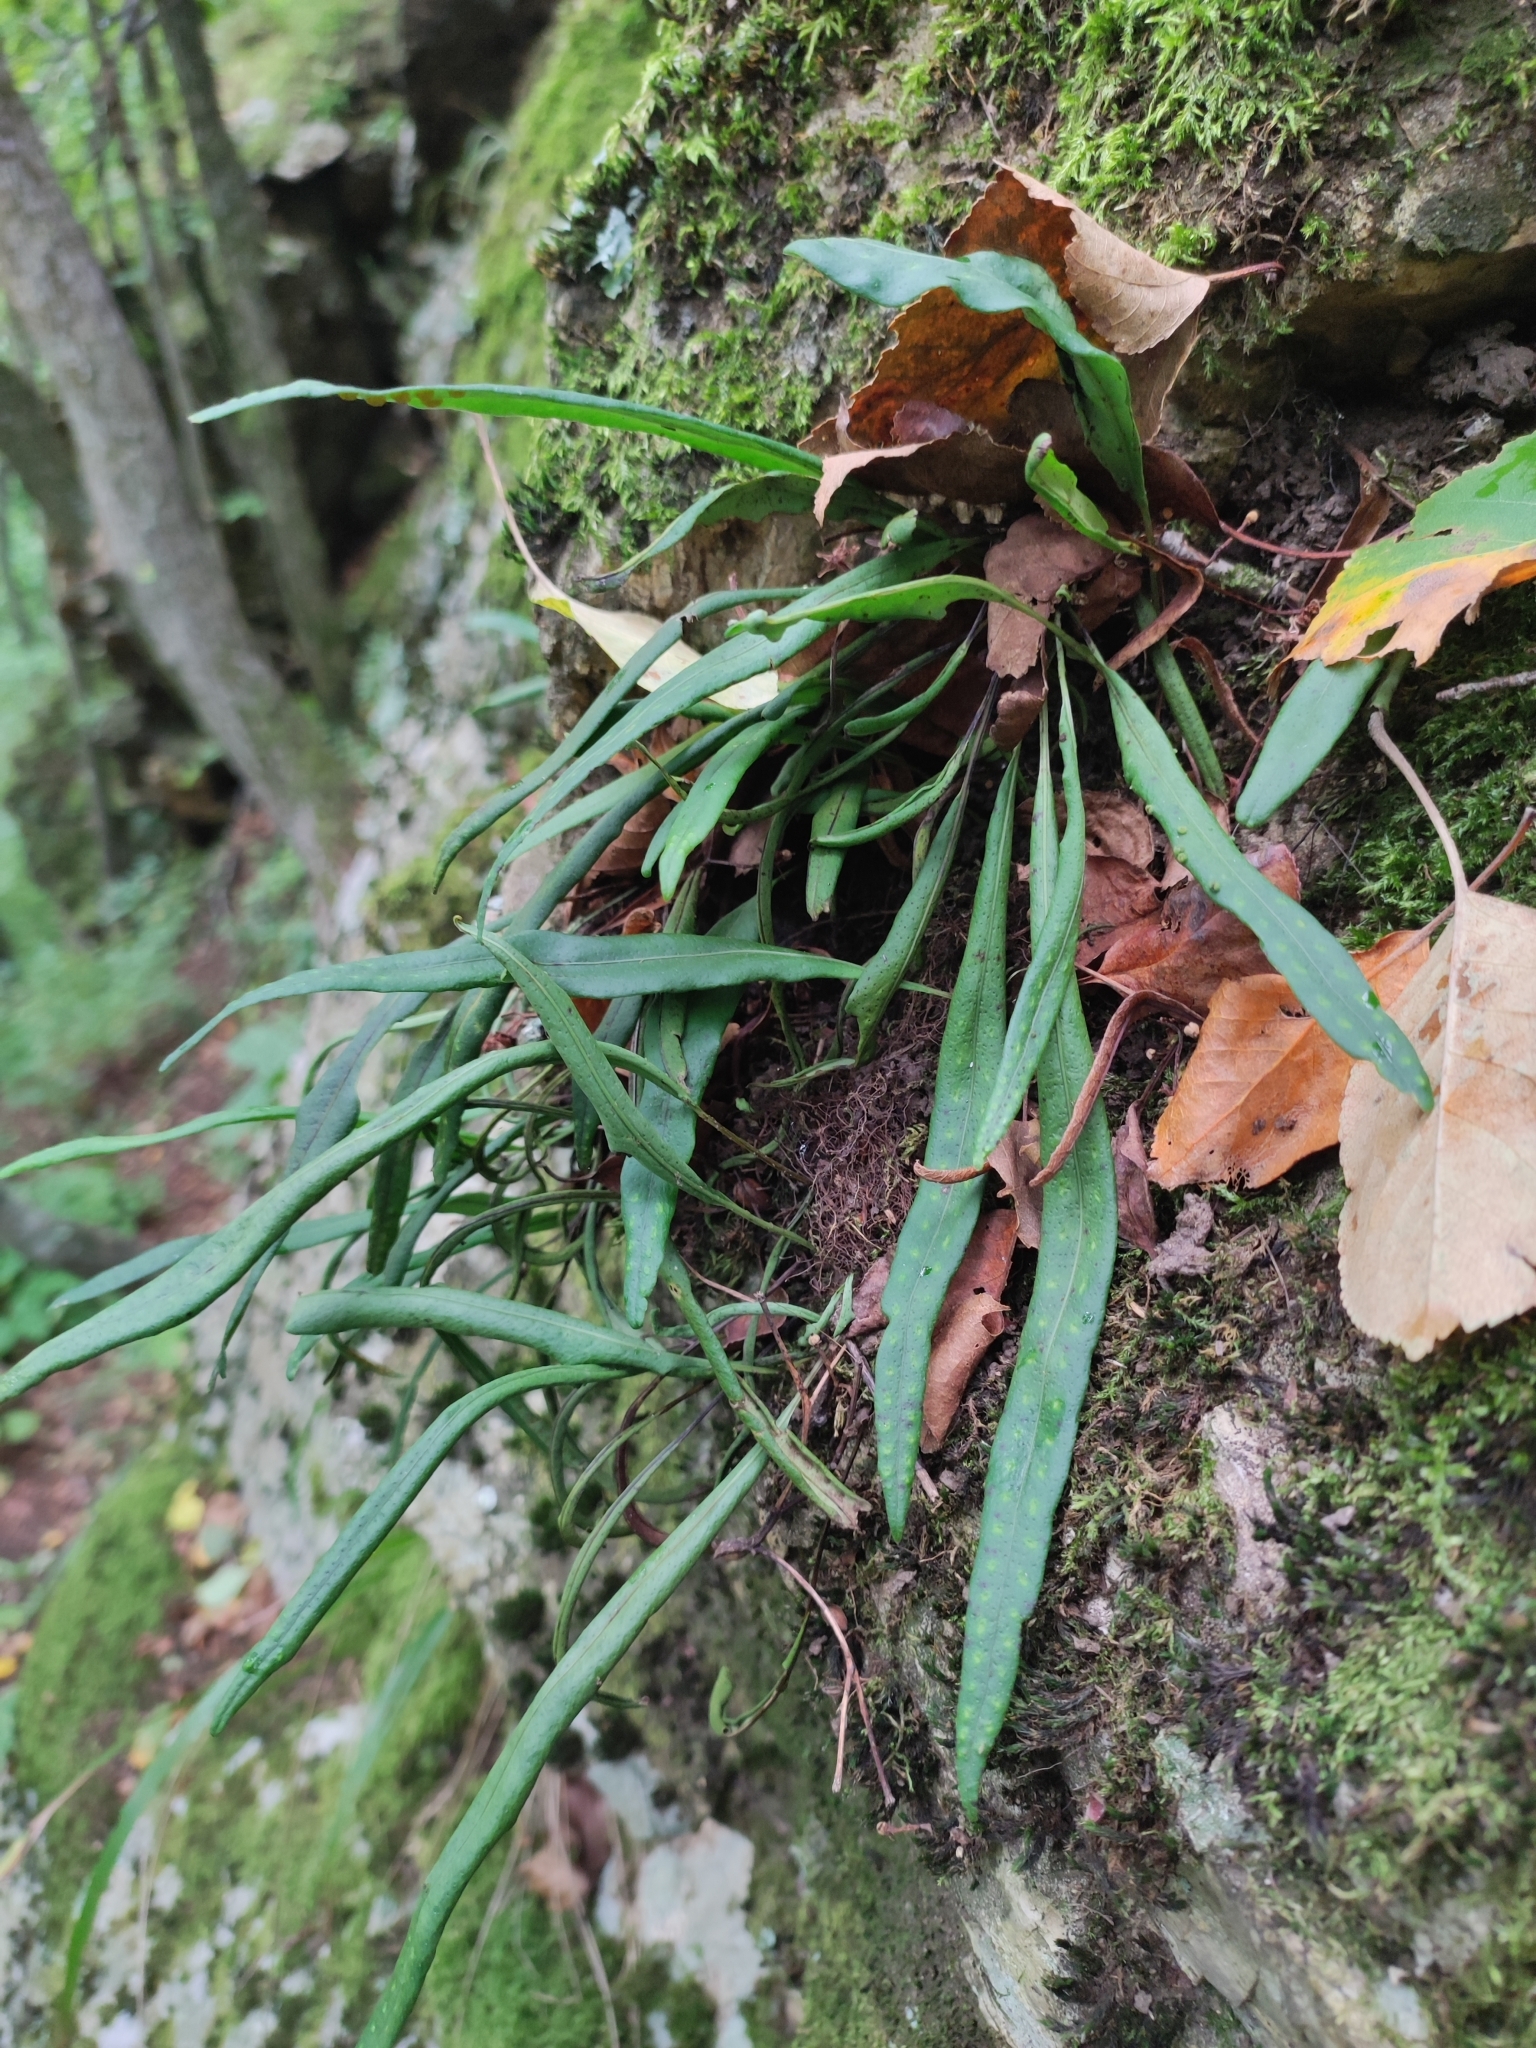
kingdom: Plantae
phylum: Tracheophyta
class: Polypodiopsida
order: Polypodiales
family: Polypodiaceae
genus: Lepisorus
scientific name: Lepisorus ussuriensis
